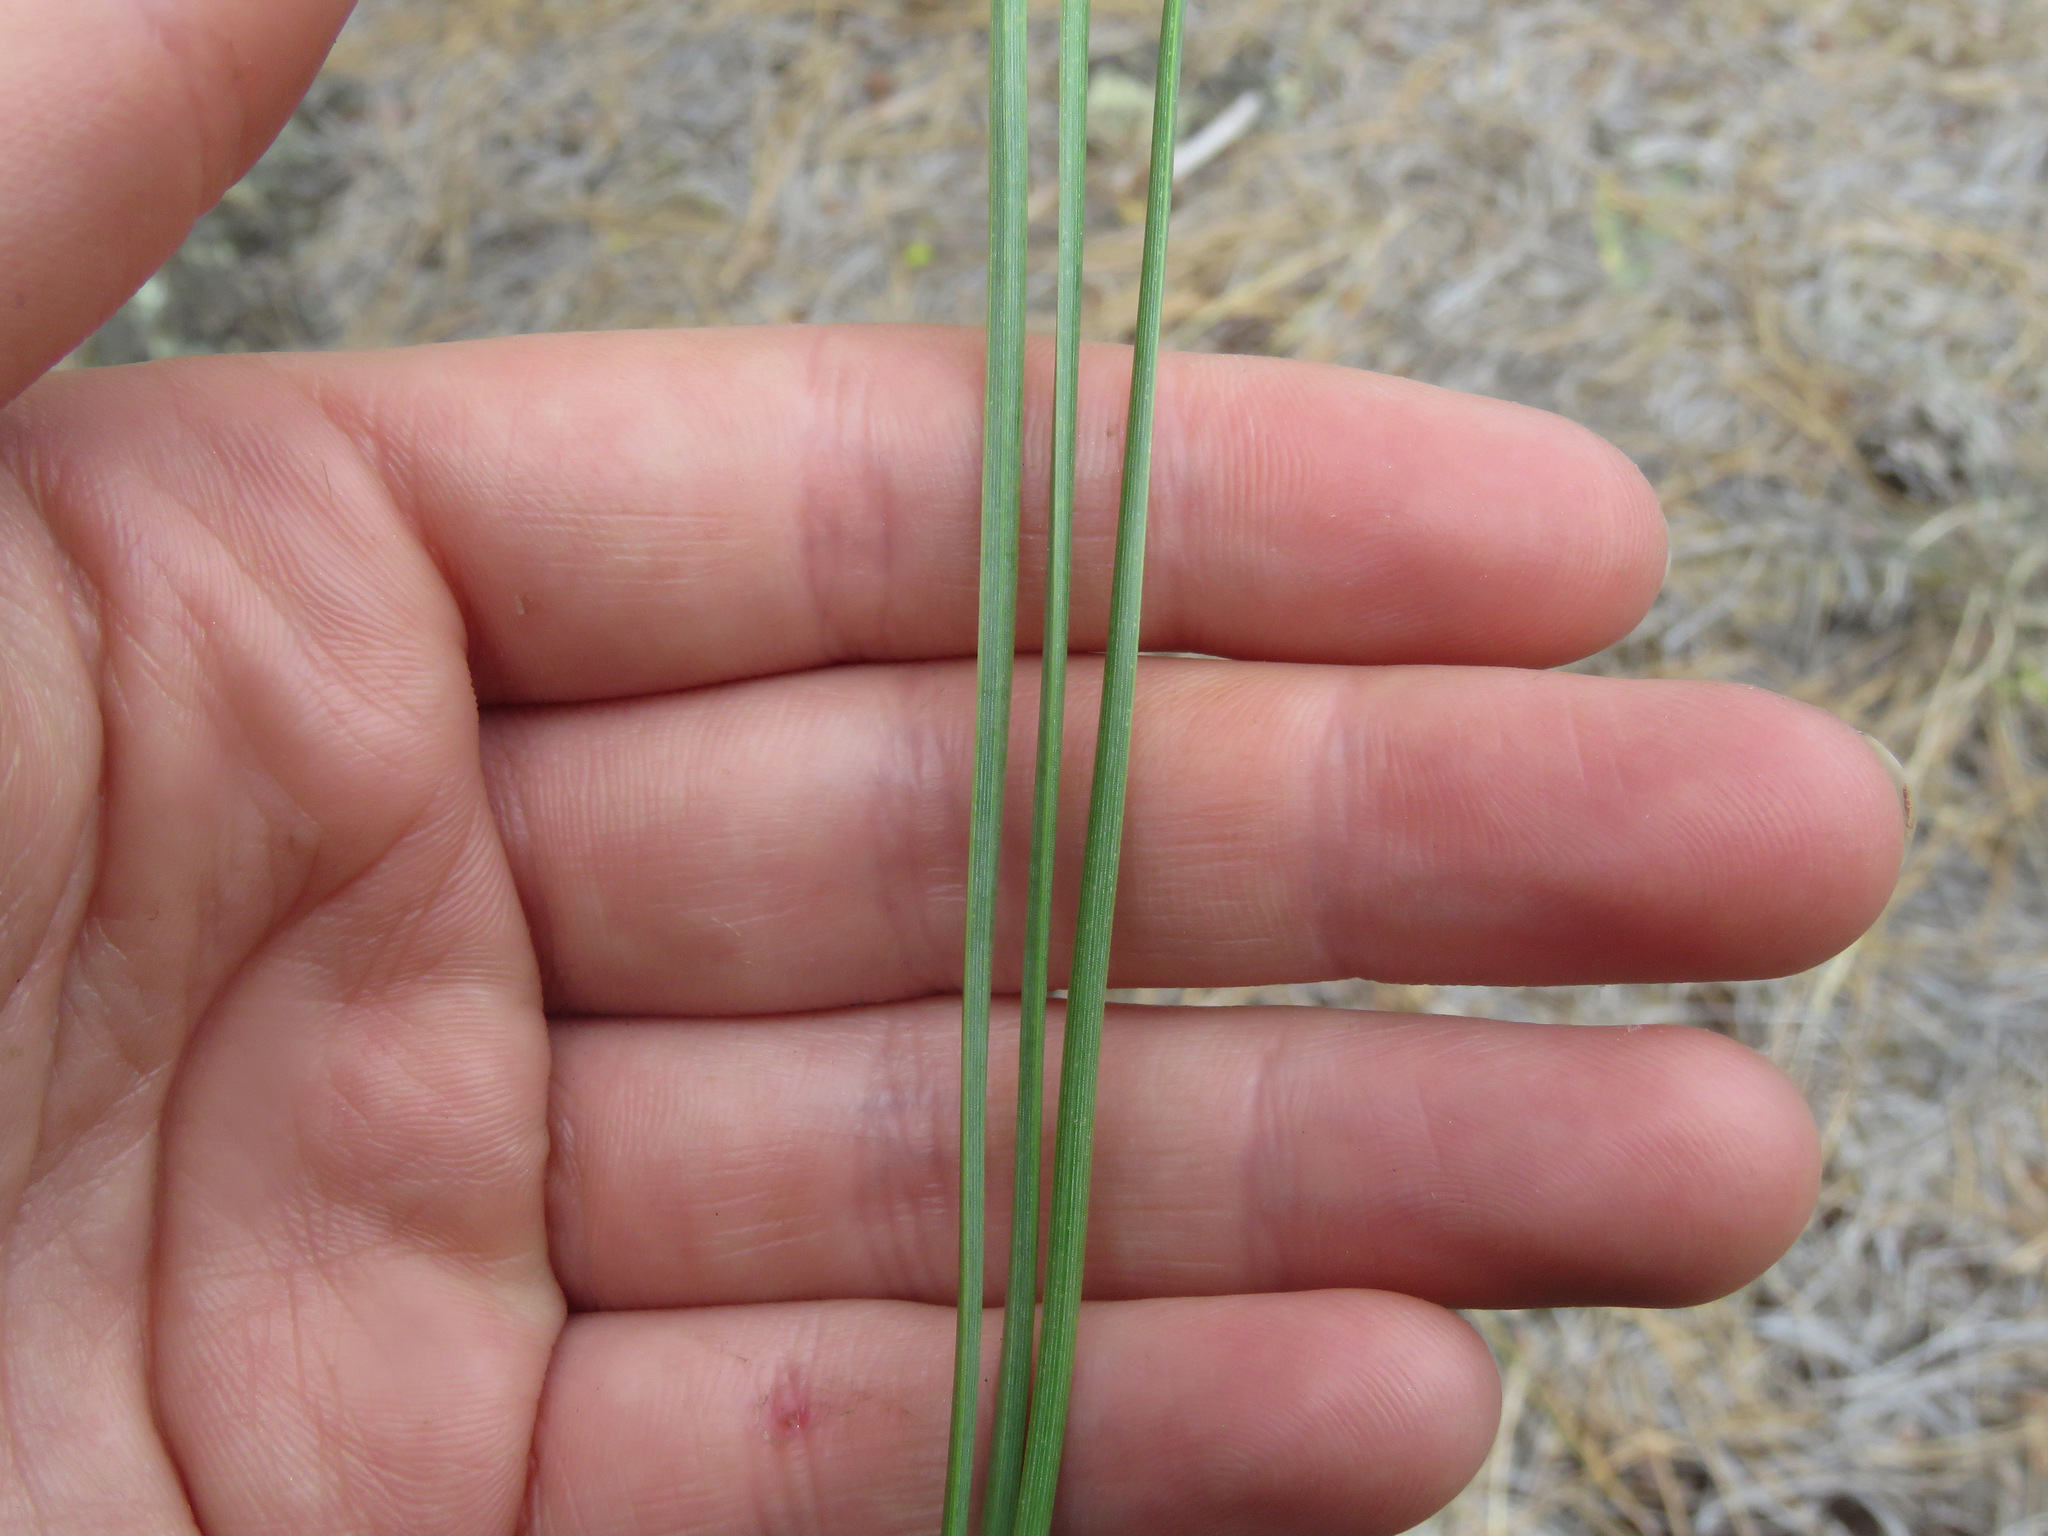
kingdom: Plantae
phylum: Tracheophyta
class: Pinopsida
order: Pinales
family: Pinaceae
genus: Pinus
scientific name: Pinus ponderosa
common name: Western yellow-pine
